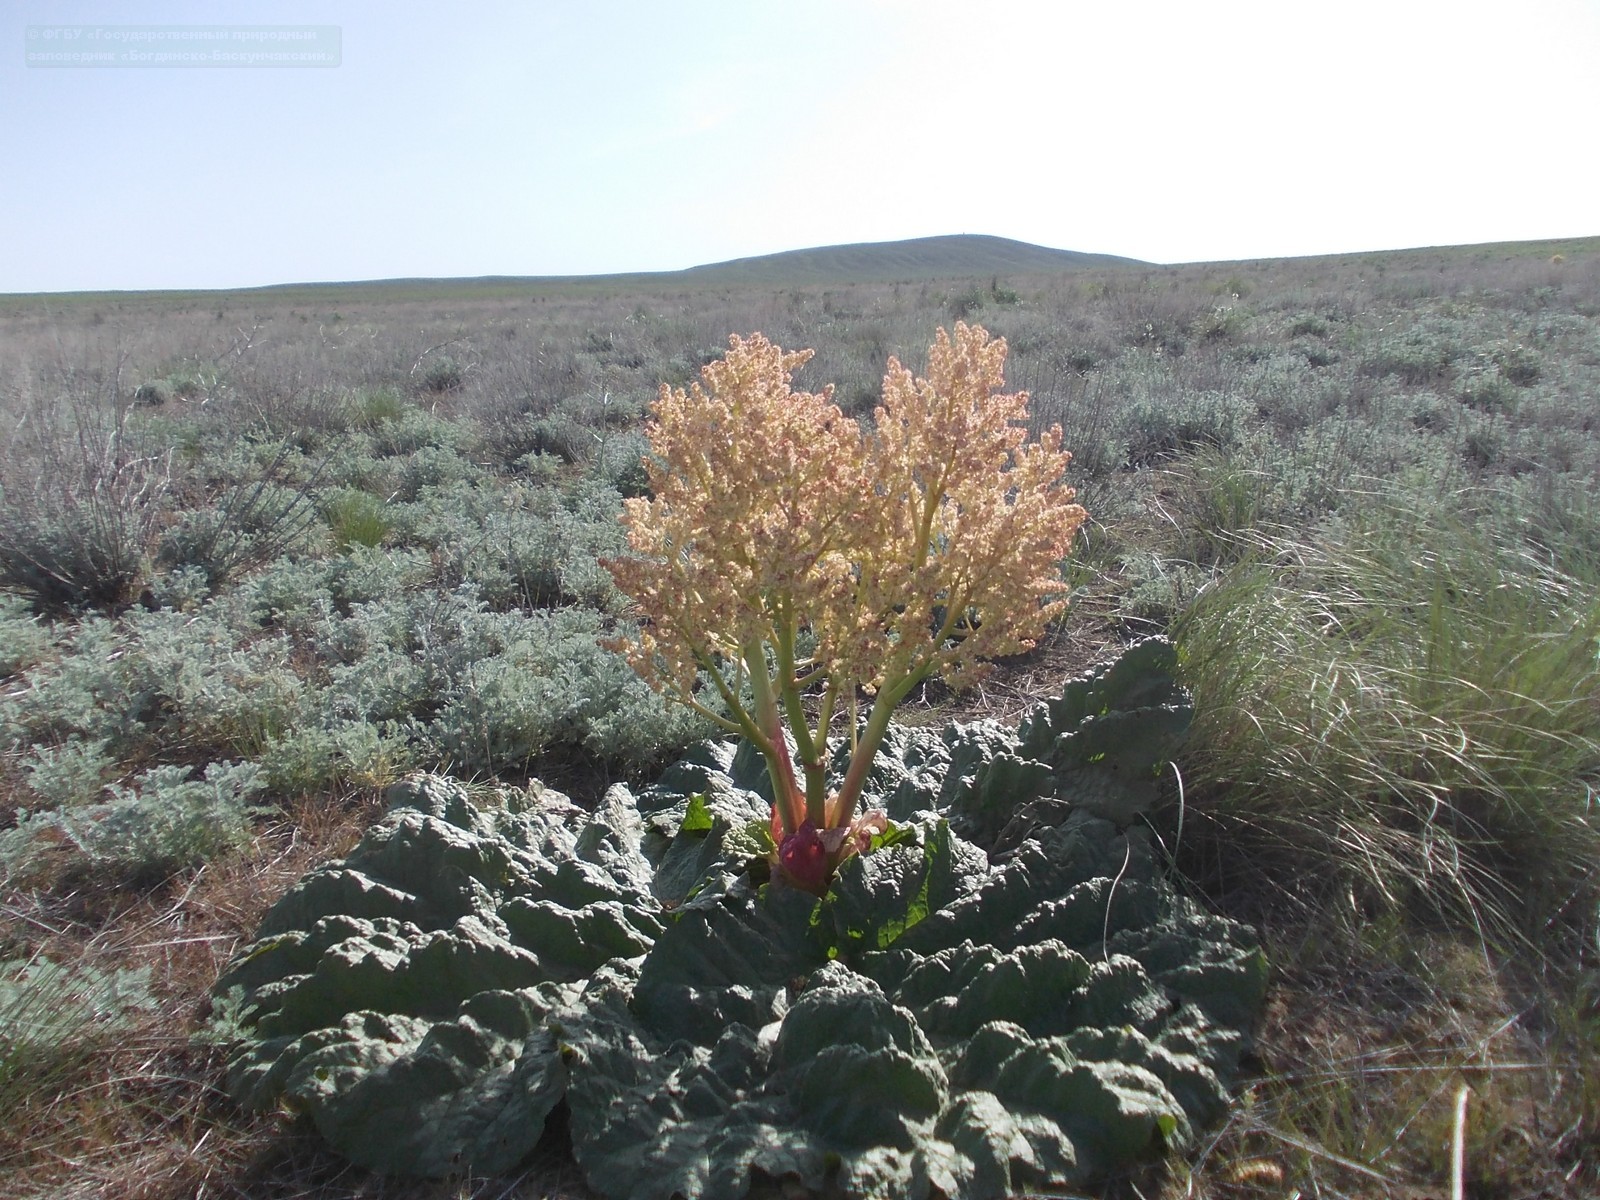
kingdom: Plantae
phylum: Tracheophyta
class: Magnoliopsida
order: Caryophyllales
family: Polygonaceae
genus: Rheum
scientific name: Rheum tataricum
